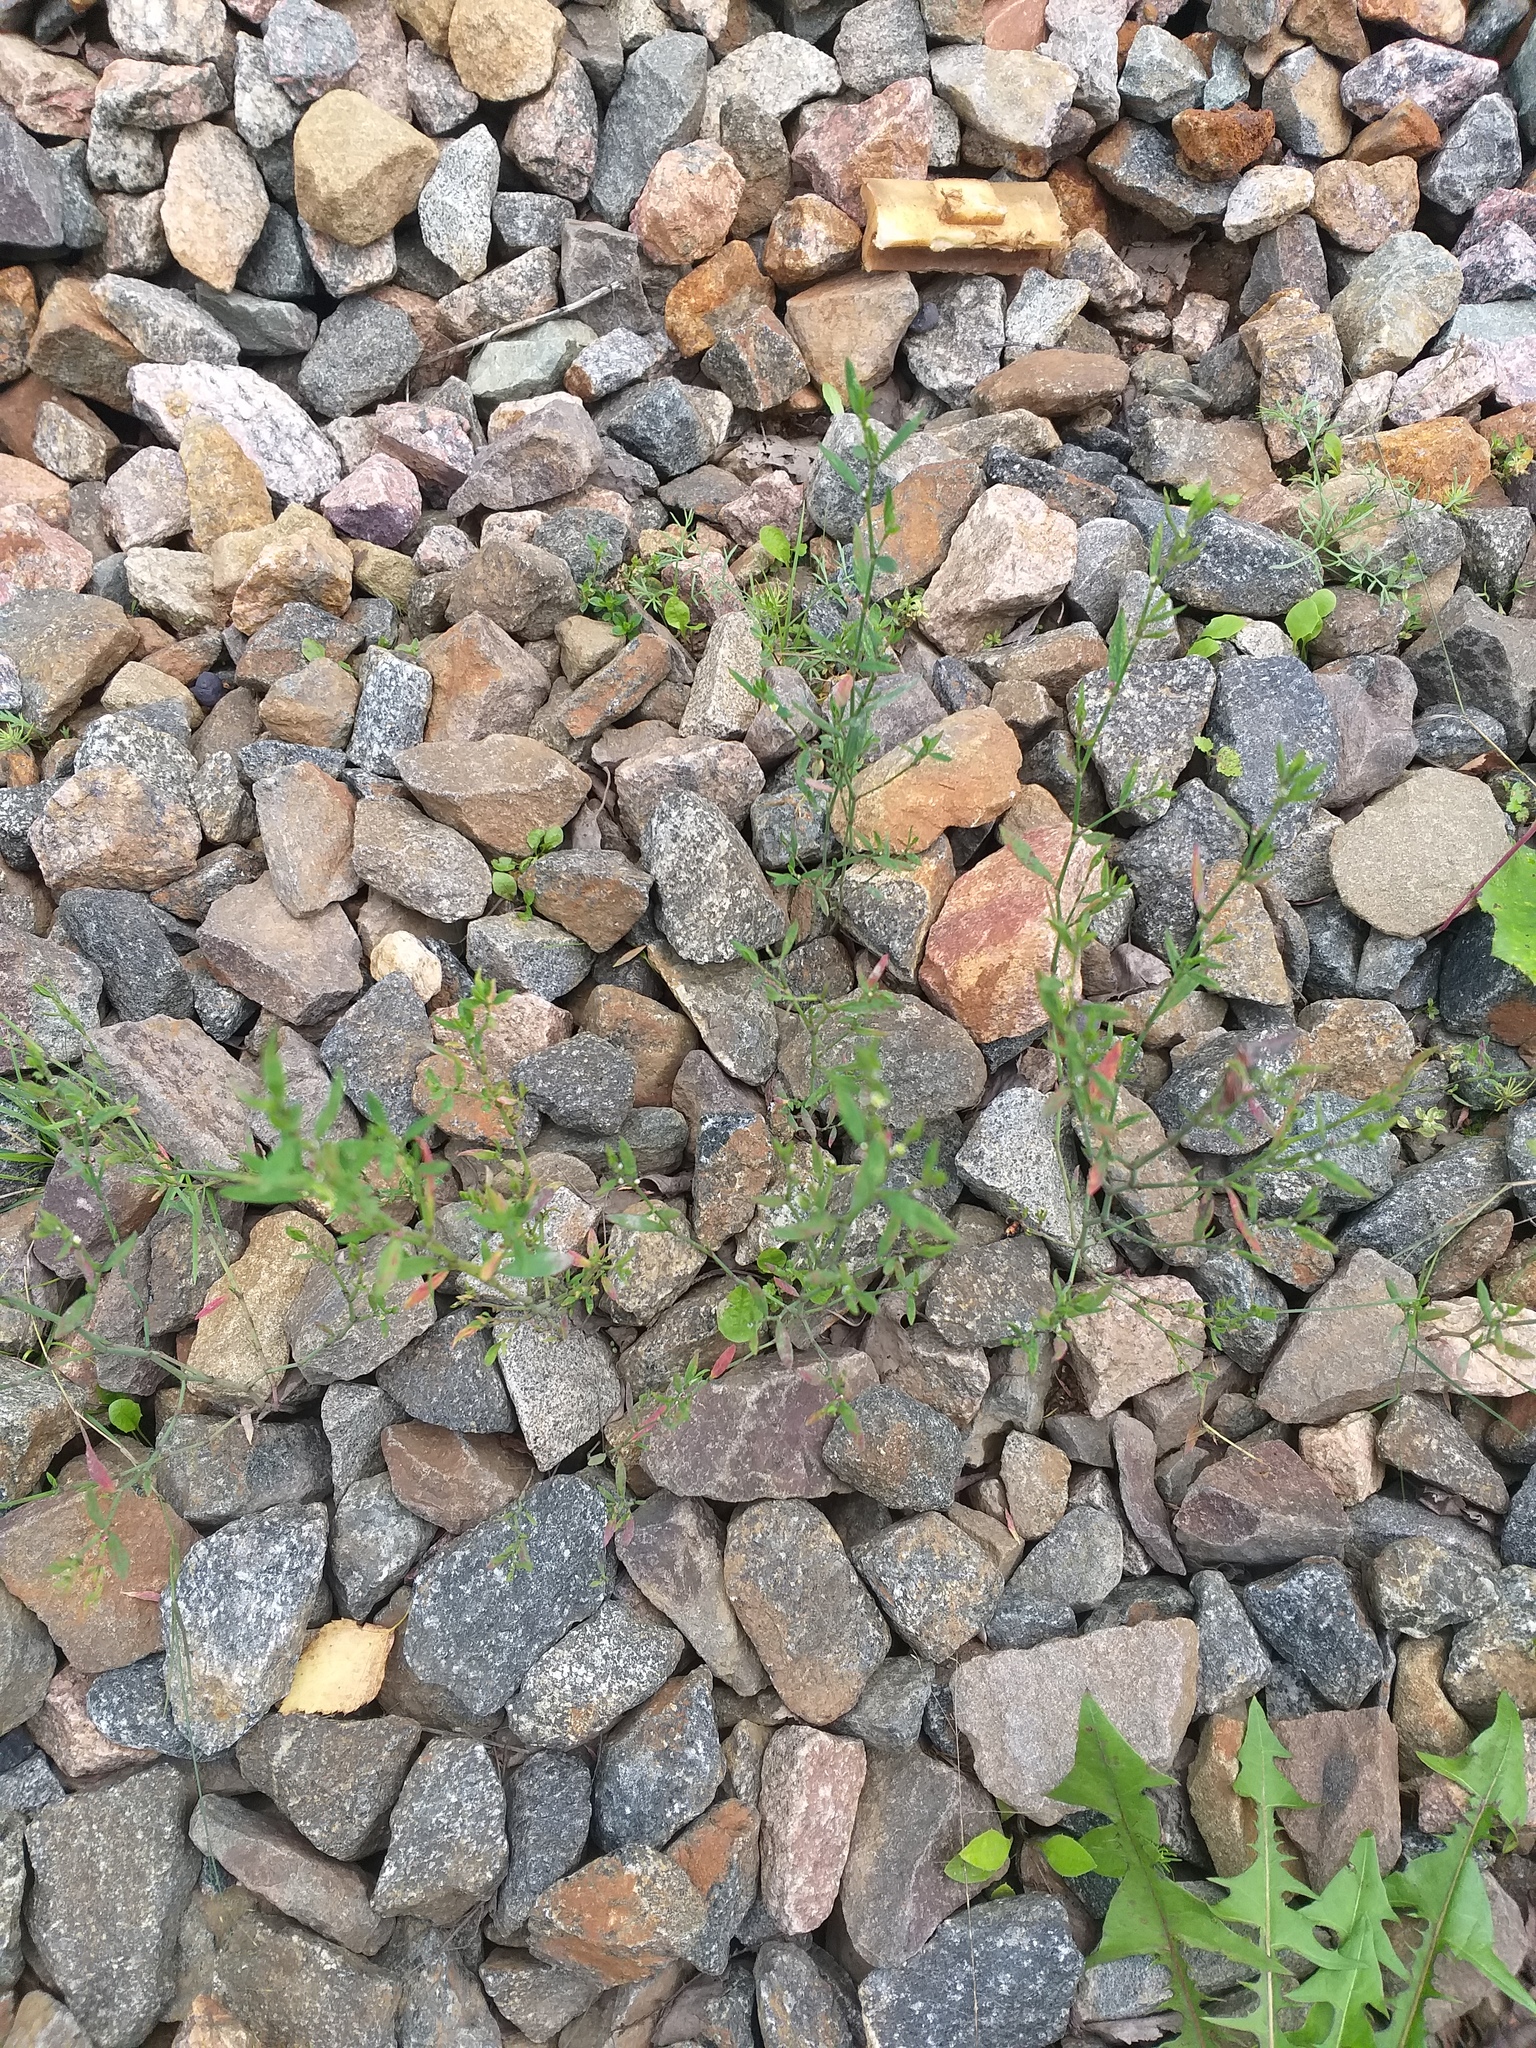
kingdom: Plantae
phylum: Tracheophyta
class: Magnoliopsida
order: Caryophyllales
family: Polygonaceae
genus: Polygonum
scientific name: Polygonum
